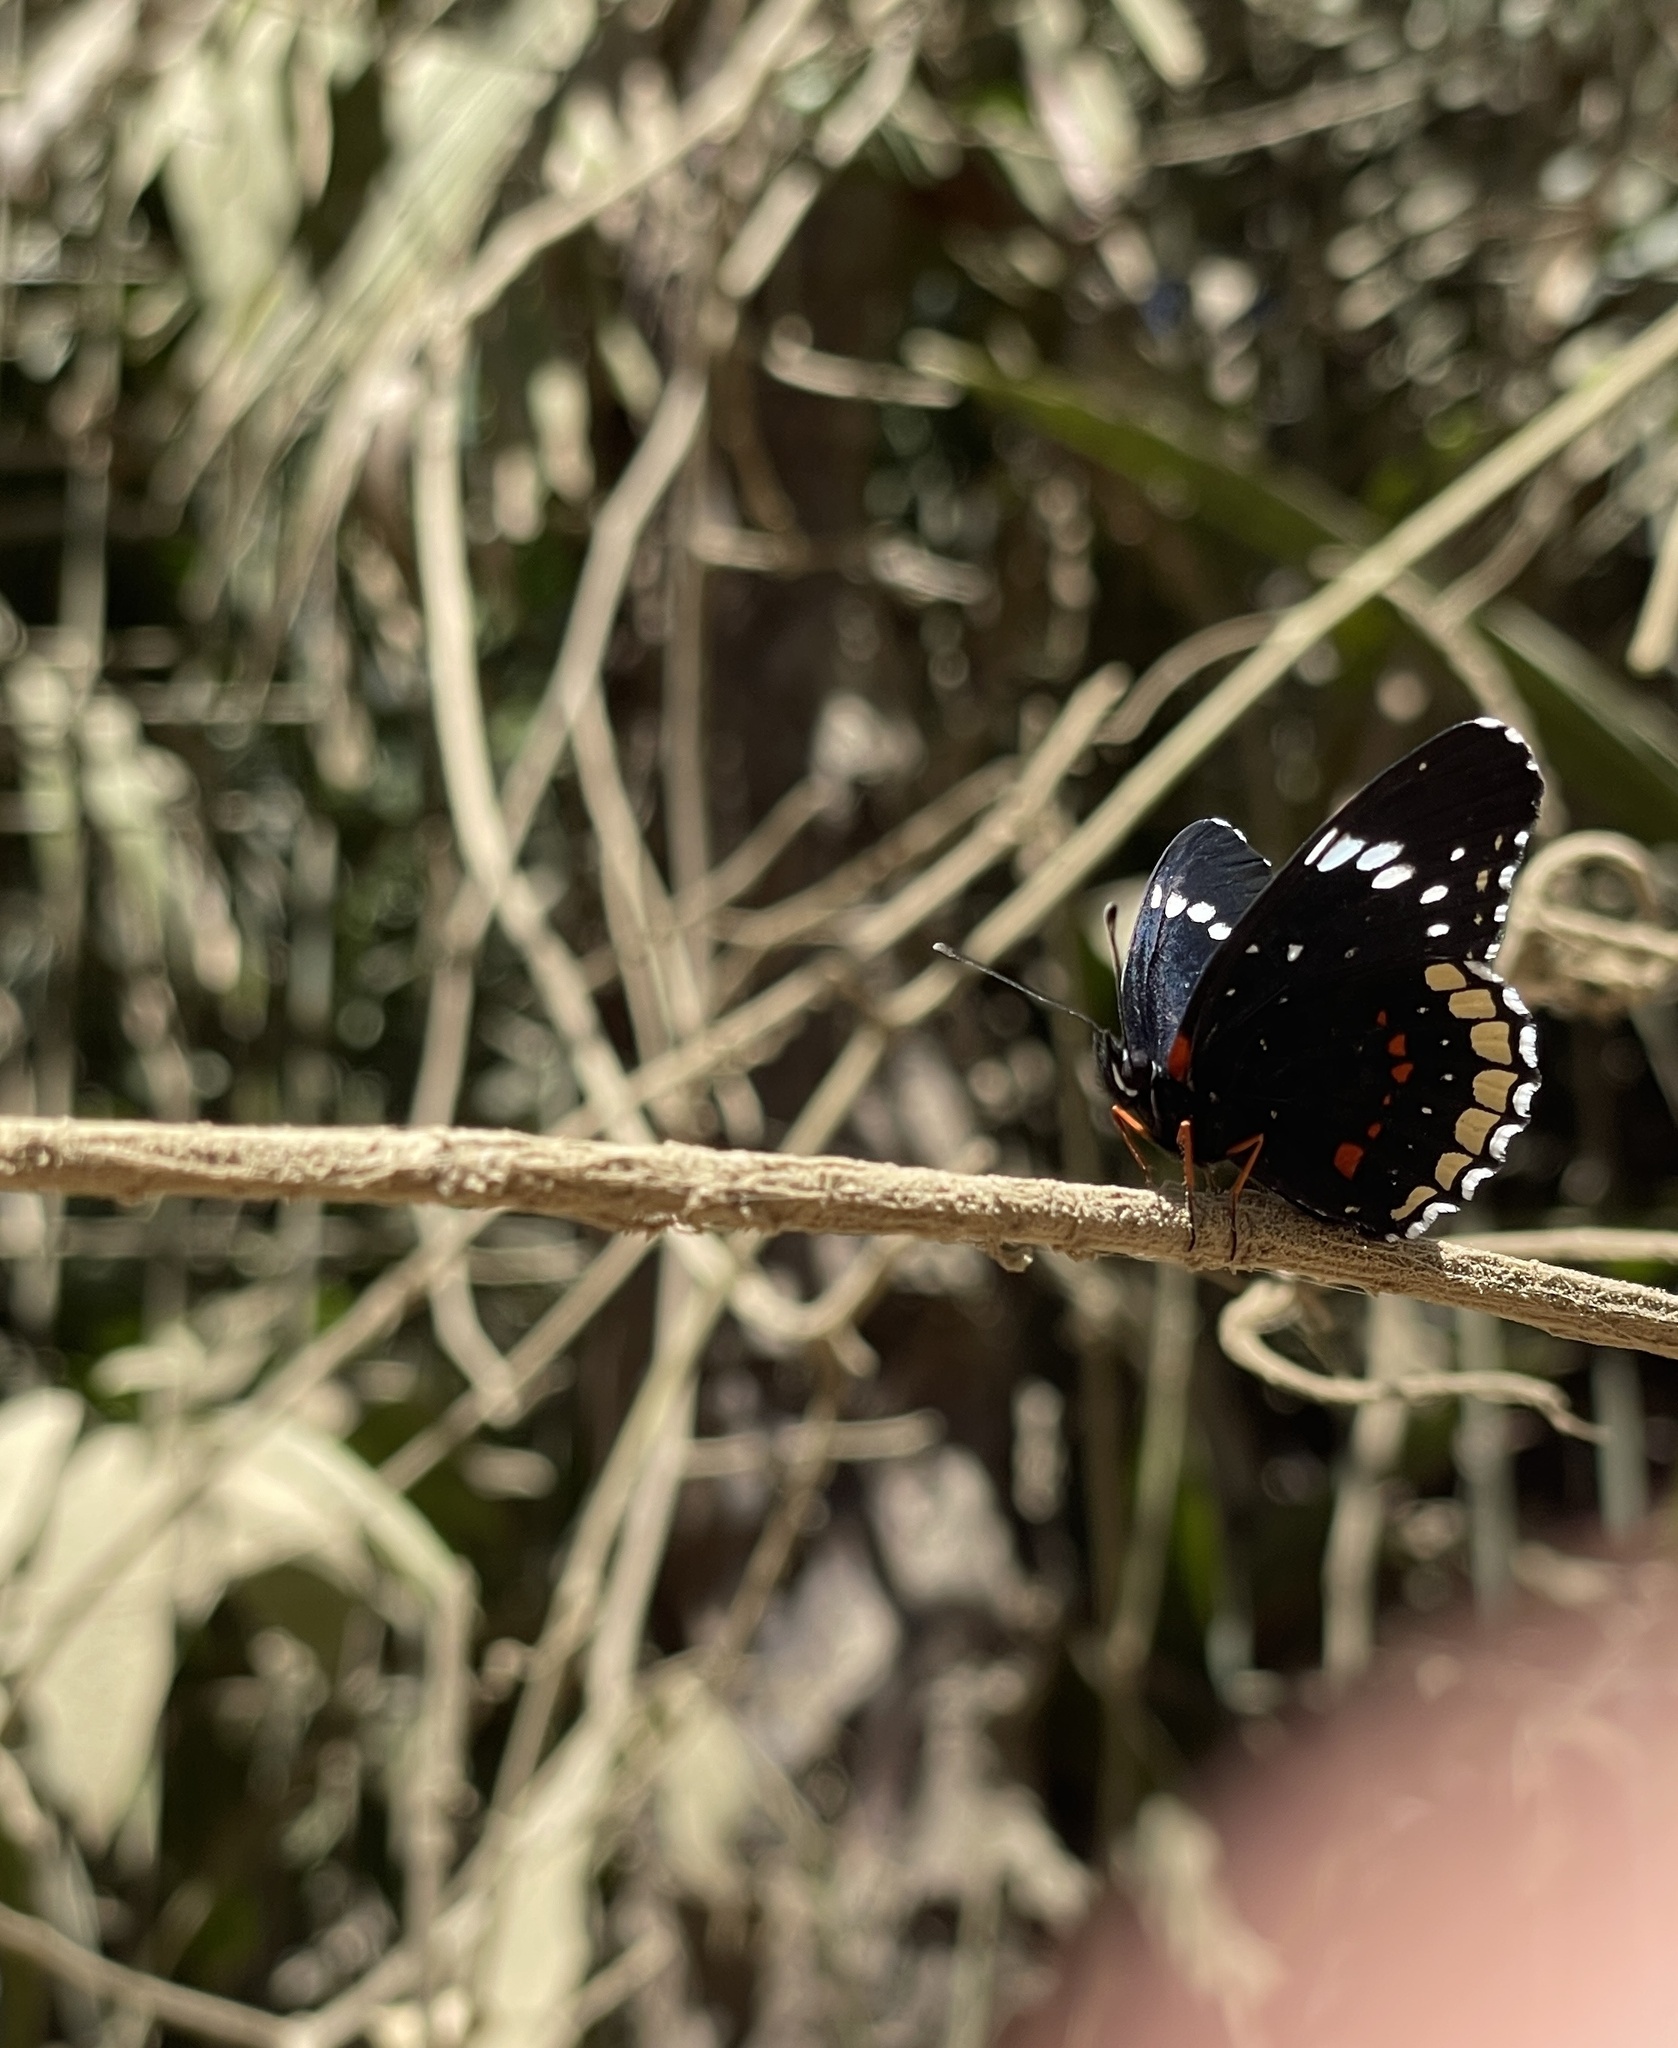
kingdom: Animalia
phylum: Arthropoda
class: Insecta
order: Lepidoptera
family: Nymphalidae
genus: Chlosyne
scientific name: Chlosyne hippodrome
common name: Simple patch
